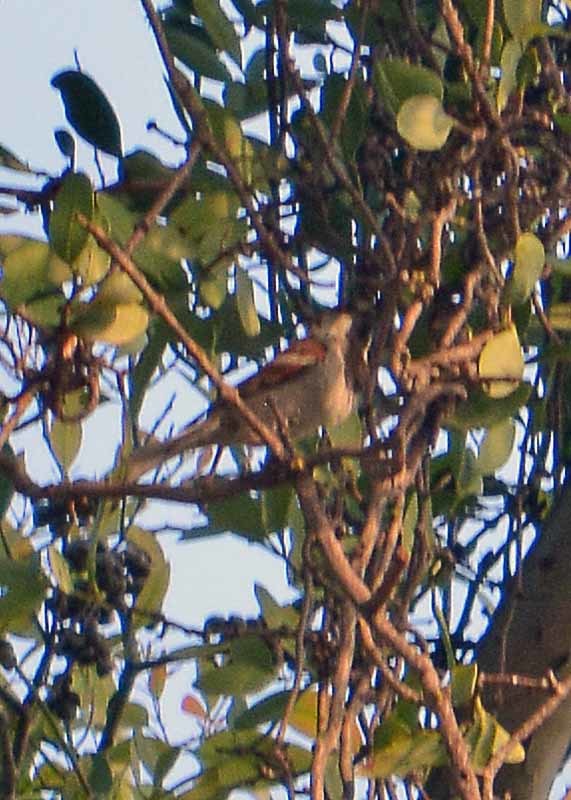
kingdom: Animalia
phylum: Chordata
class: Aves
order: Passeriformes
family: Passeridae
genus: Passer
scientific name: Passer domesticus
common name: House sparrow
